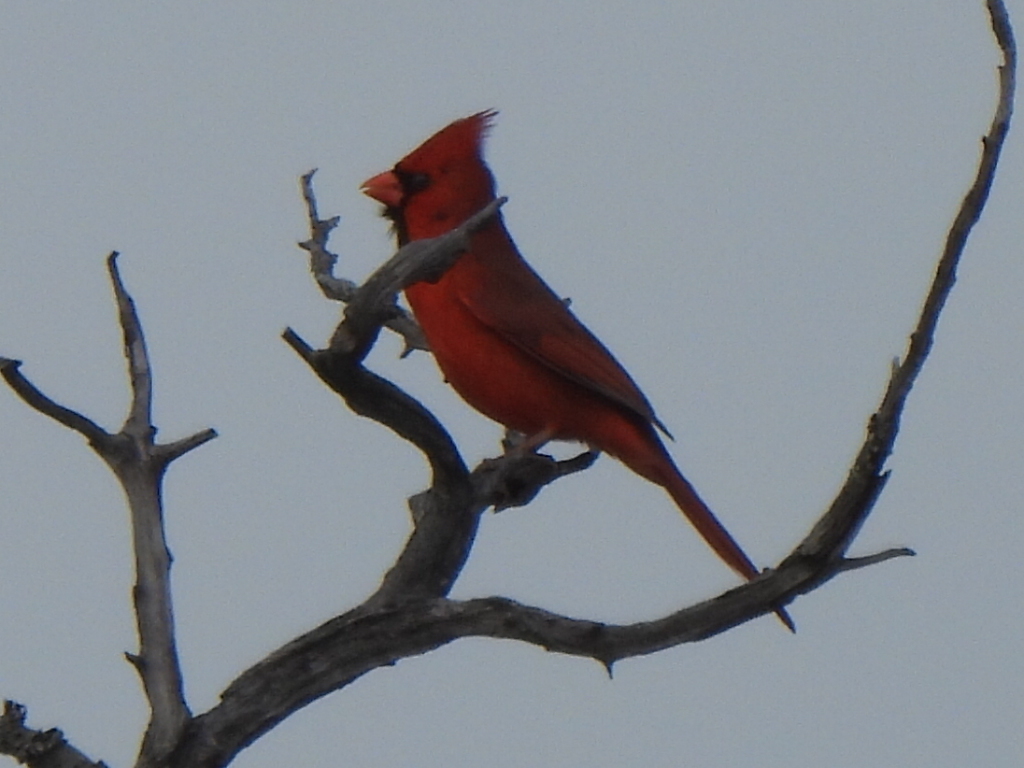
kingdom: Animalia
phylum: Chordata
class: Aves
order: Passeriformes
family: Cardinalidae
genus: Cardinalis
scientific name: Cardinalis cardinalis
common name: Northern cardinal
